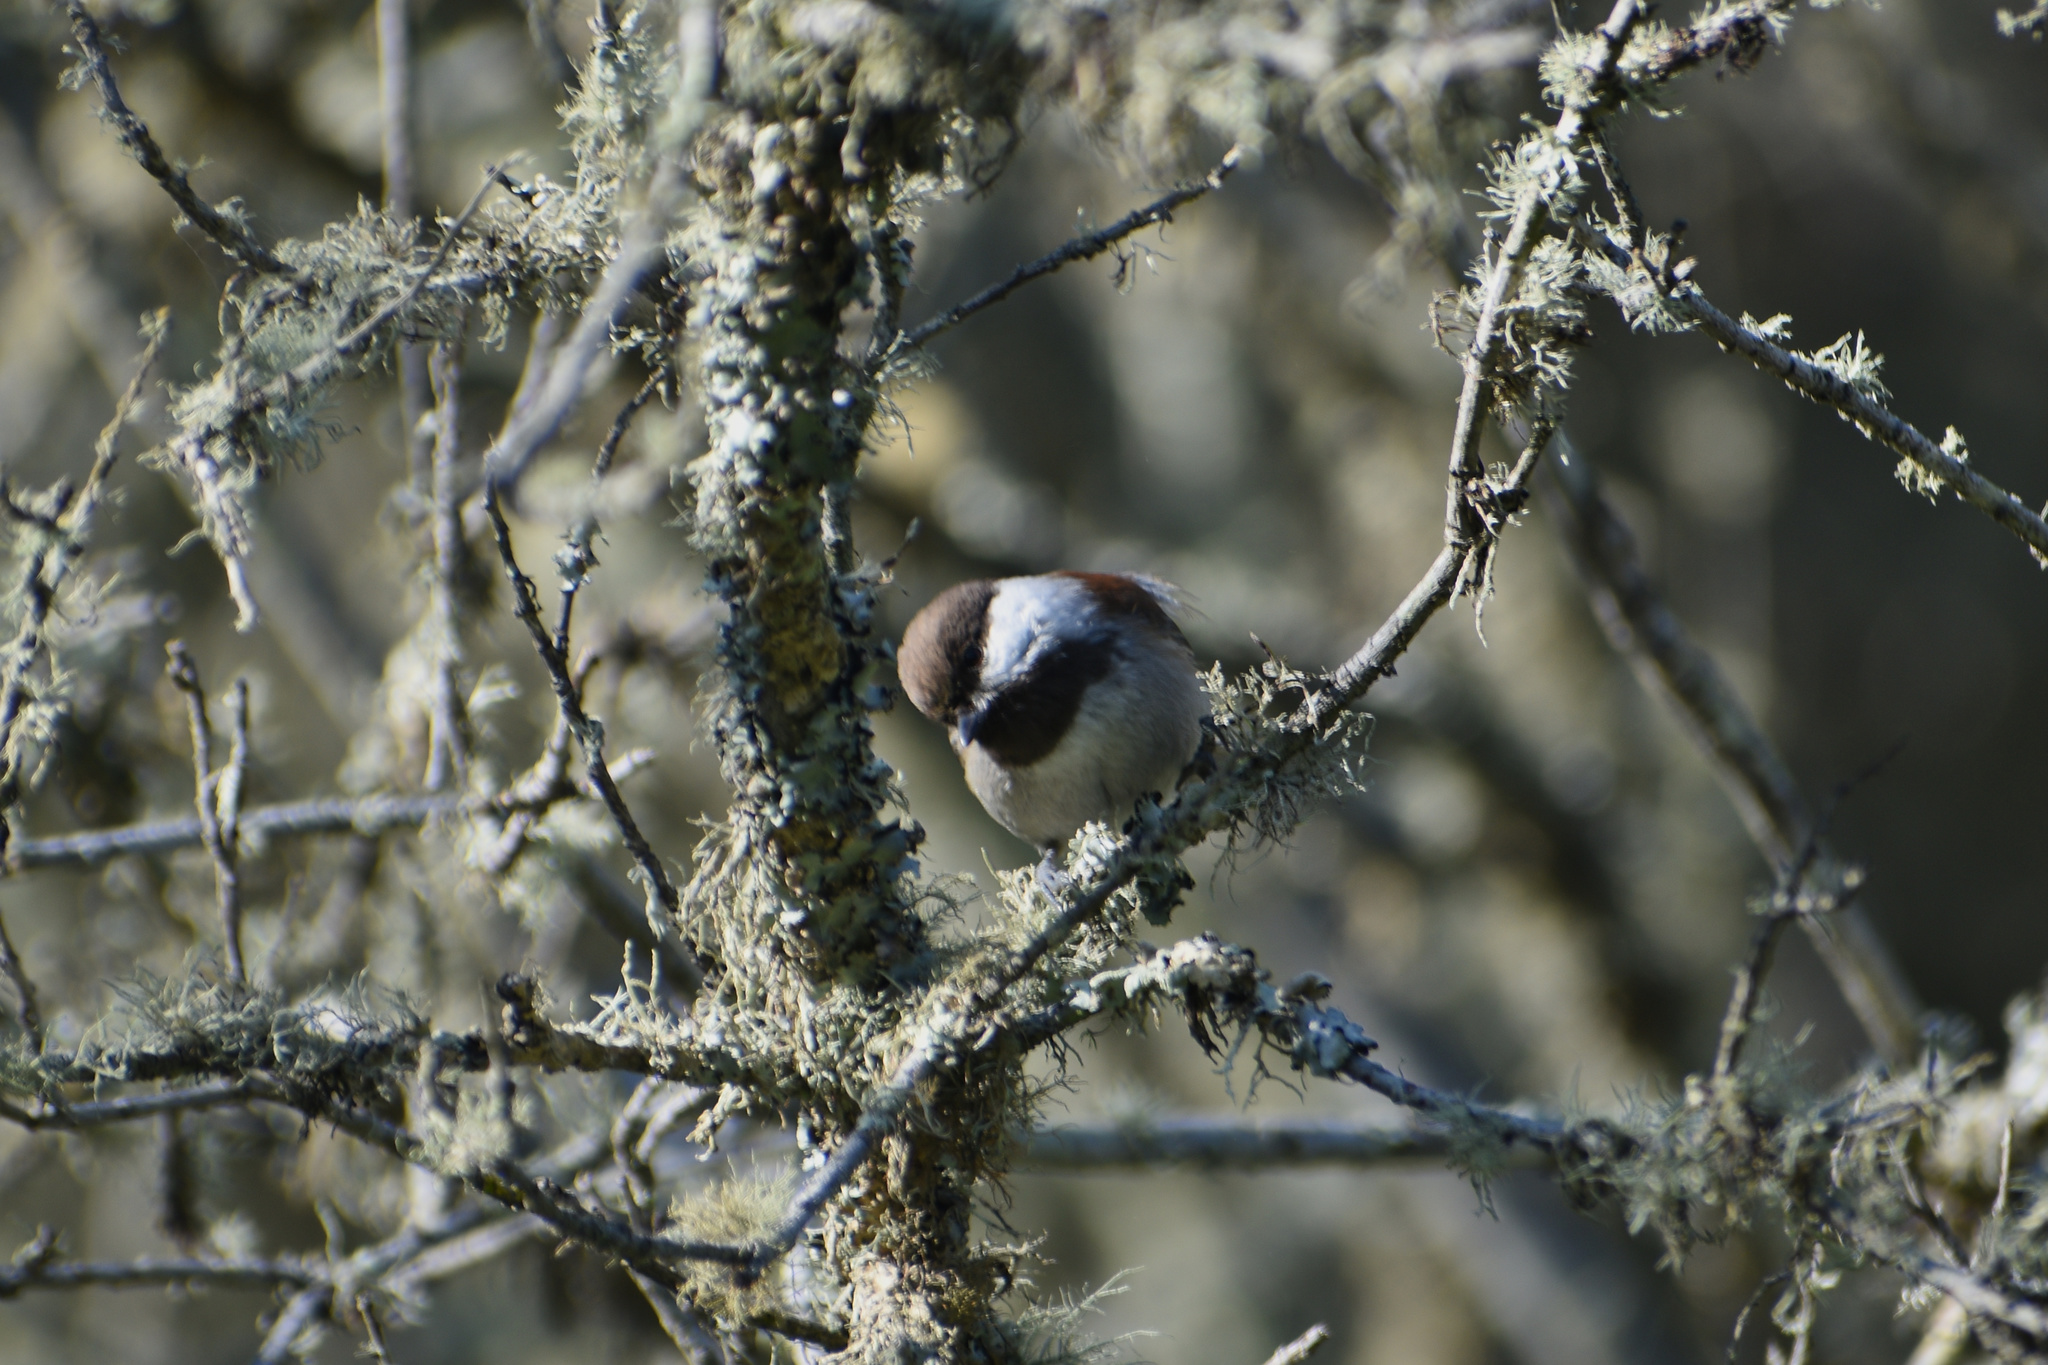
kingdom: Animalia
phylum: Chordata
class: Aves
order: Passeriformes
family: Paridae
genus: Poecile
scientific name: Poecile rufescens
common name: Chestnut-backed chickadee
